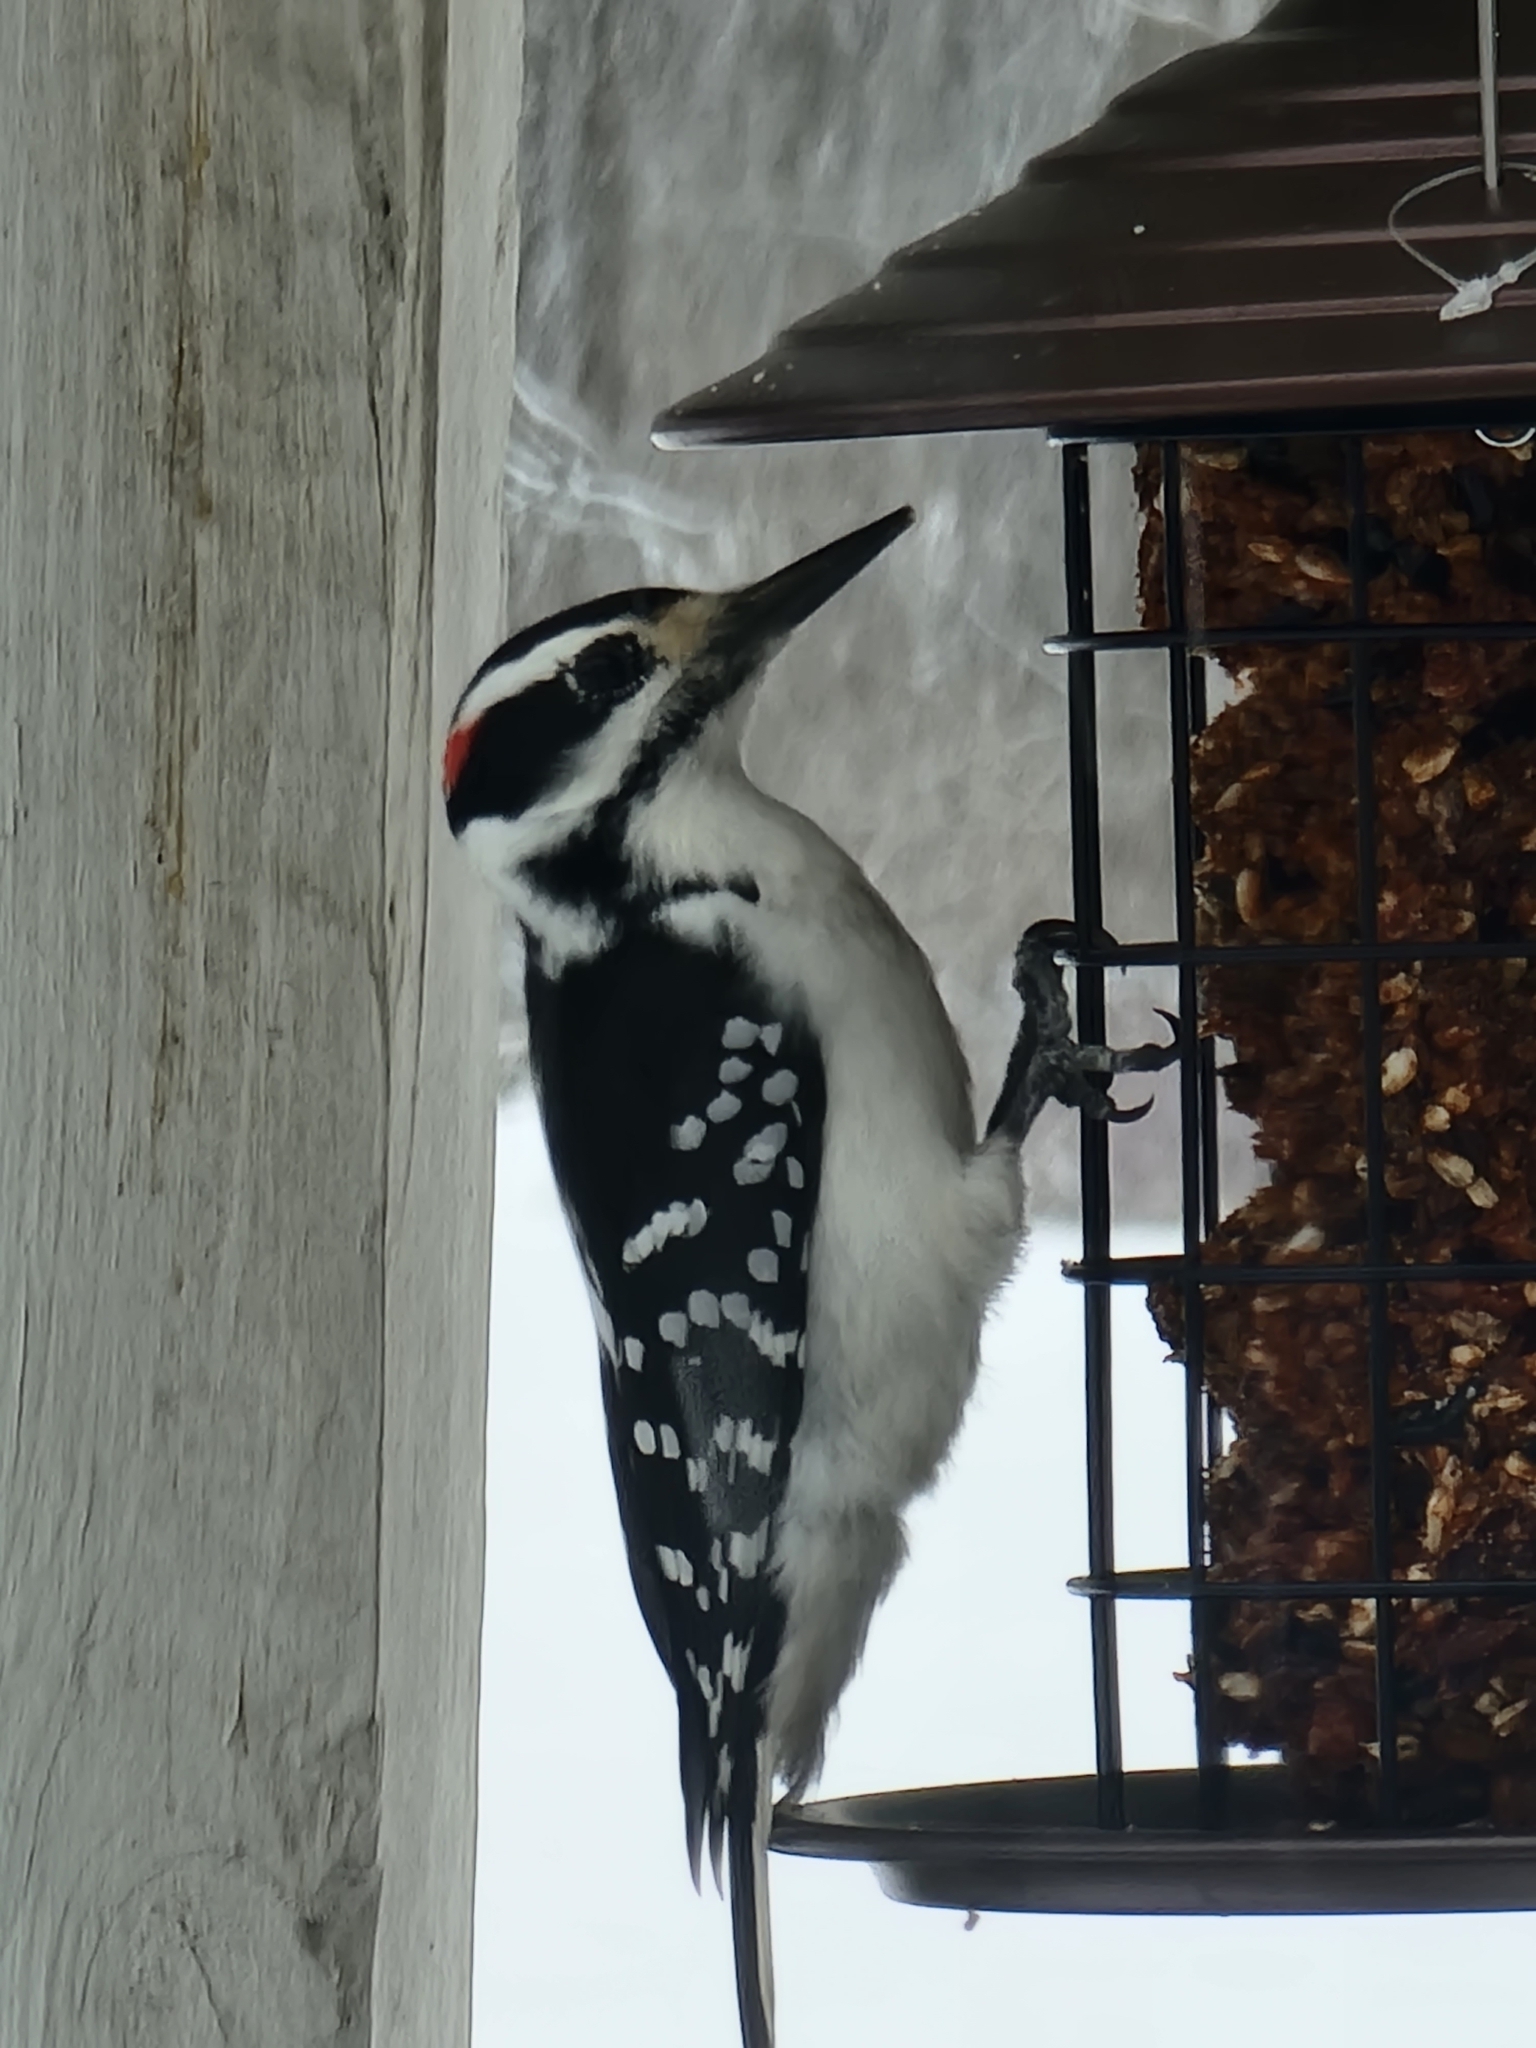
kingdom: Animalia
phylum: Chordata
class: Aves
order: Piciformes
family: Picidae
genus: Leuconotopicus
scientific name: Leuconotopicus villosus
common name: Hairy woodpecker
